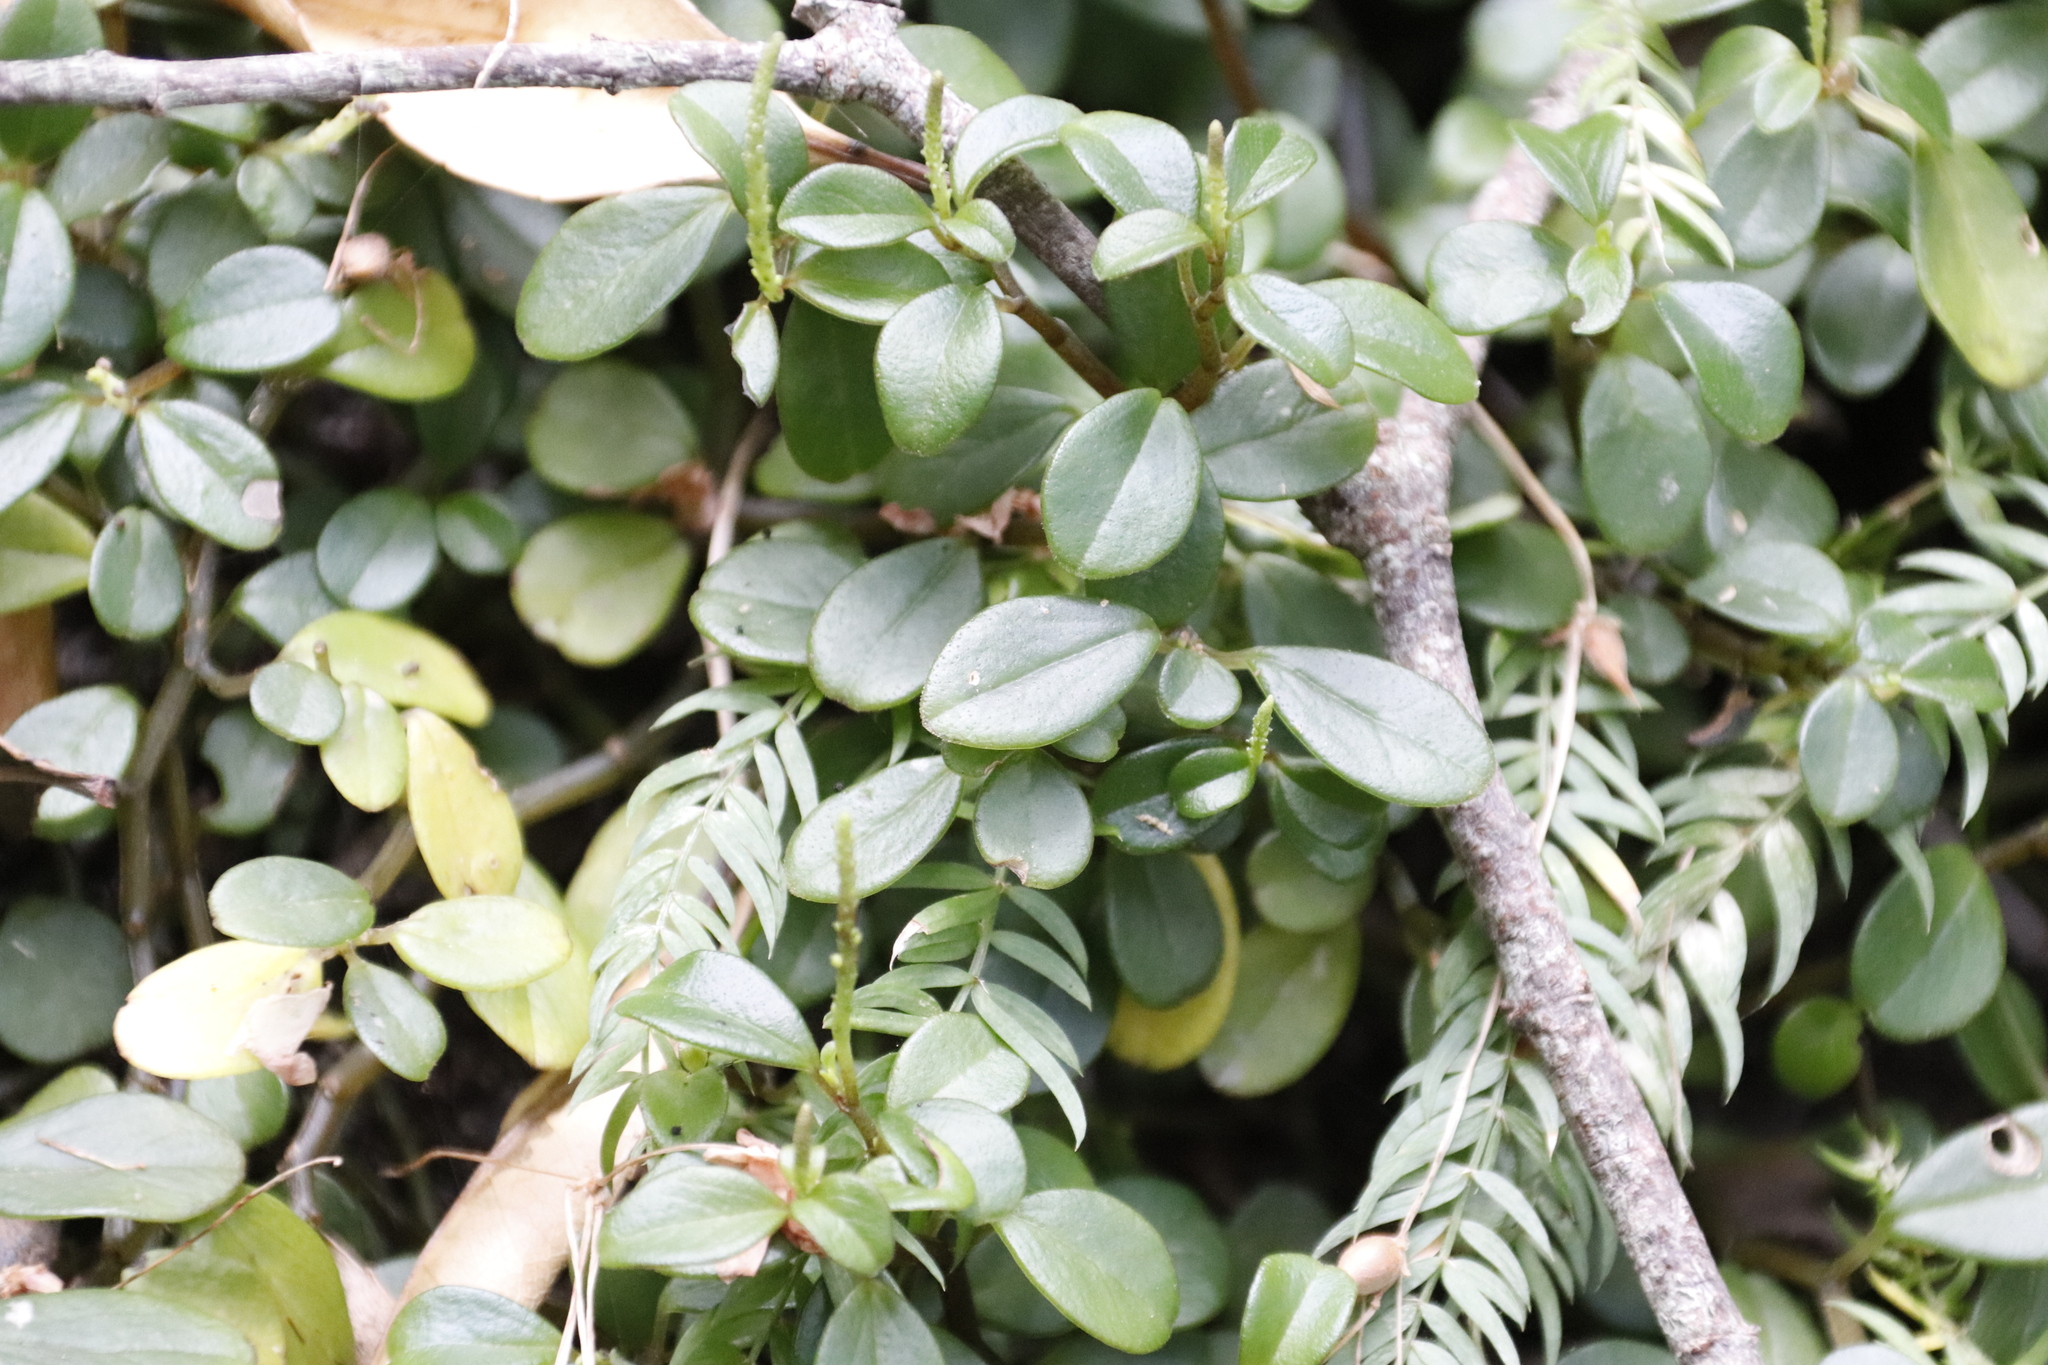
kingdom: Plantae
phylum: Tracheophyta
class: Magnoliopsida
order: Piperales
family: Piperaceae
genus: Peperomia
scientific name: Peperomia retusa
